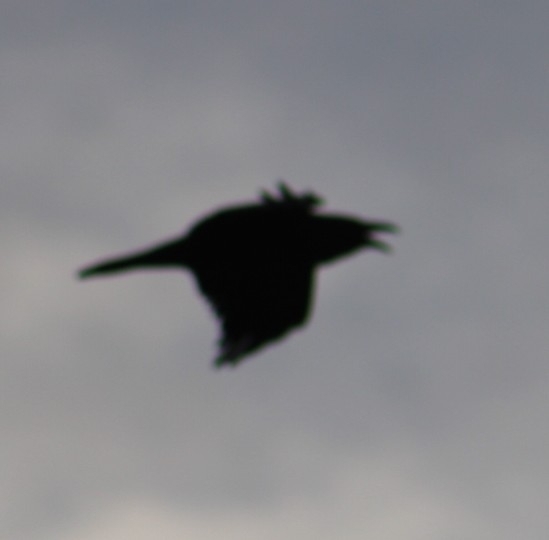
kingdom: Animalia
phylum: Chordata
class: Aves
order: Passeriformes
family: Corvidae
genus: Corvus
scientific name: Corvus corax
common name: Common raven
